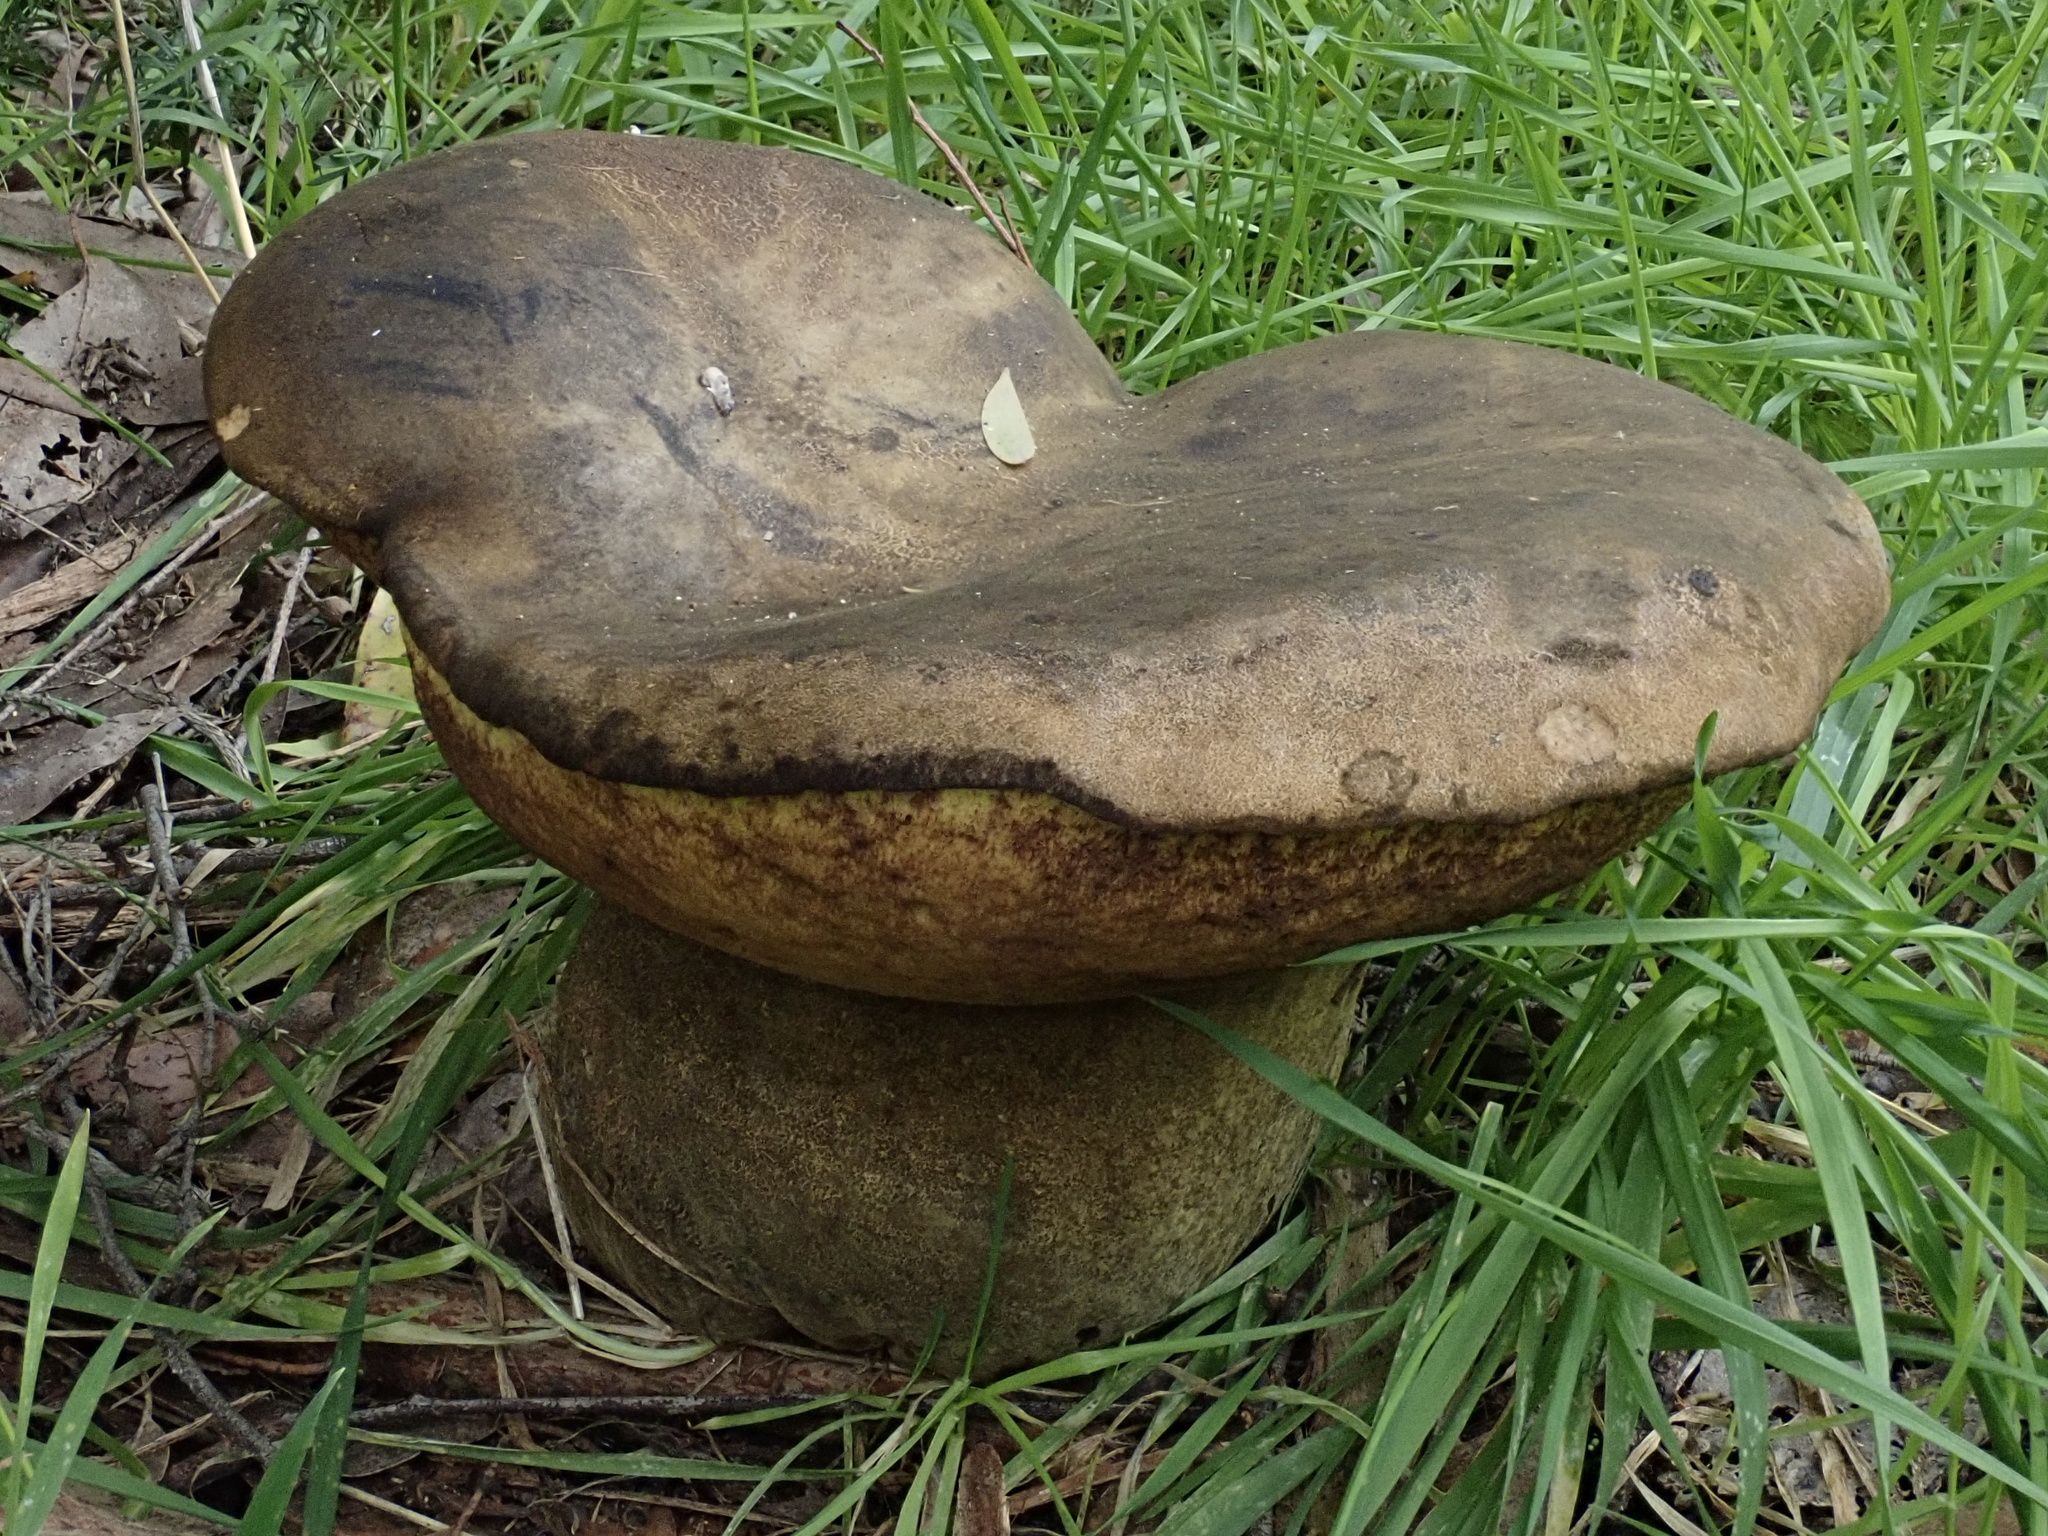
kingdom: Fungi
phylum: Basidiomycota
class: Agaricomycetes
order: Boletales
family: Boletinellaceae
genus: Phlebopus
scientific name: Phlebopus marginatus
